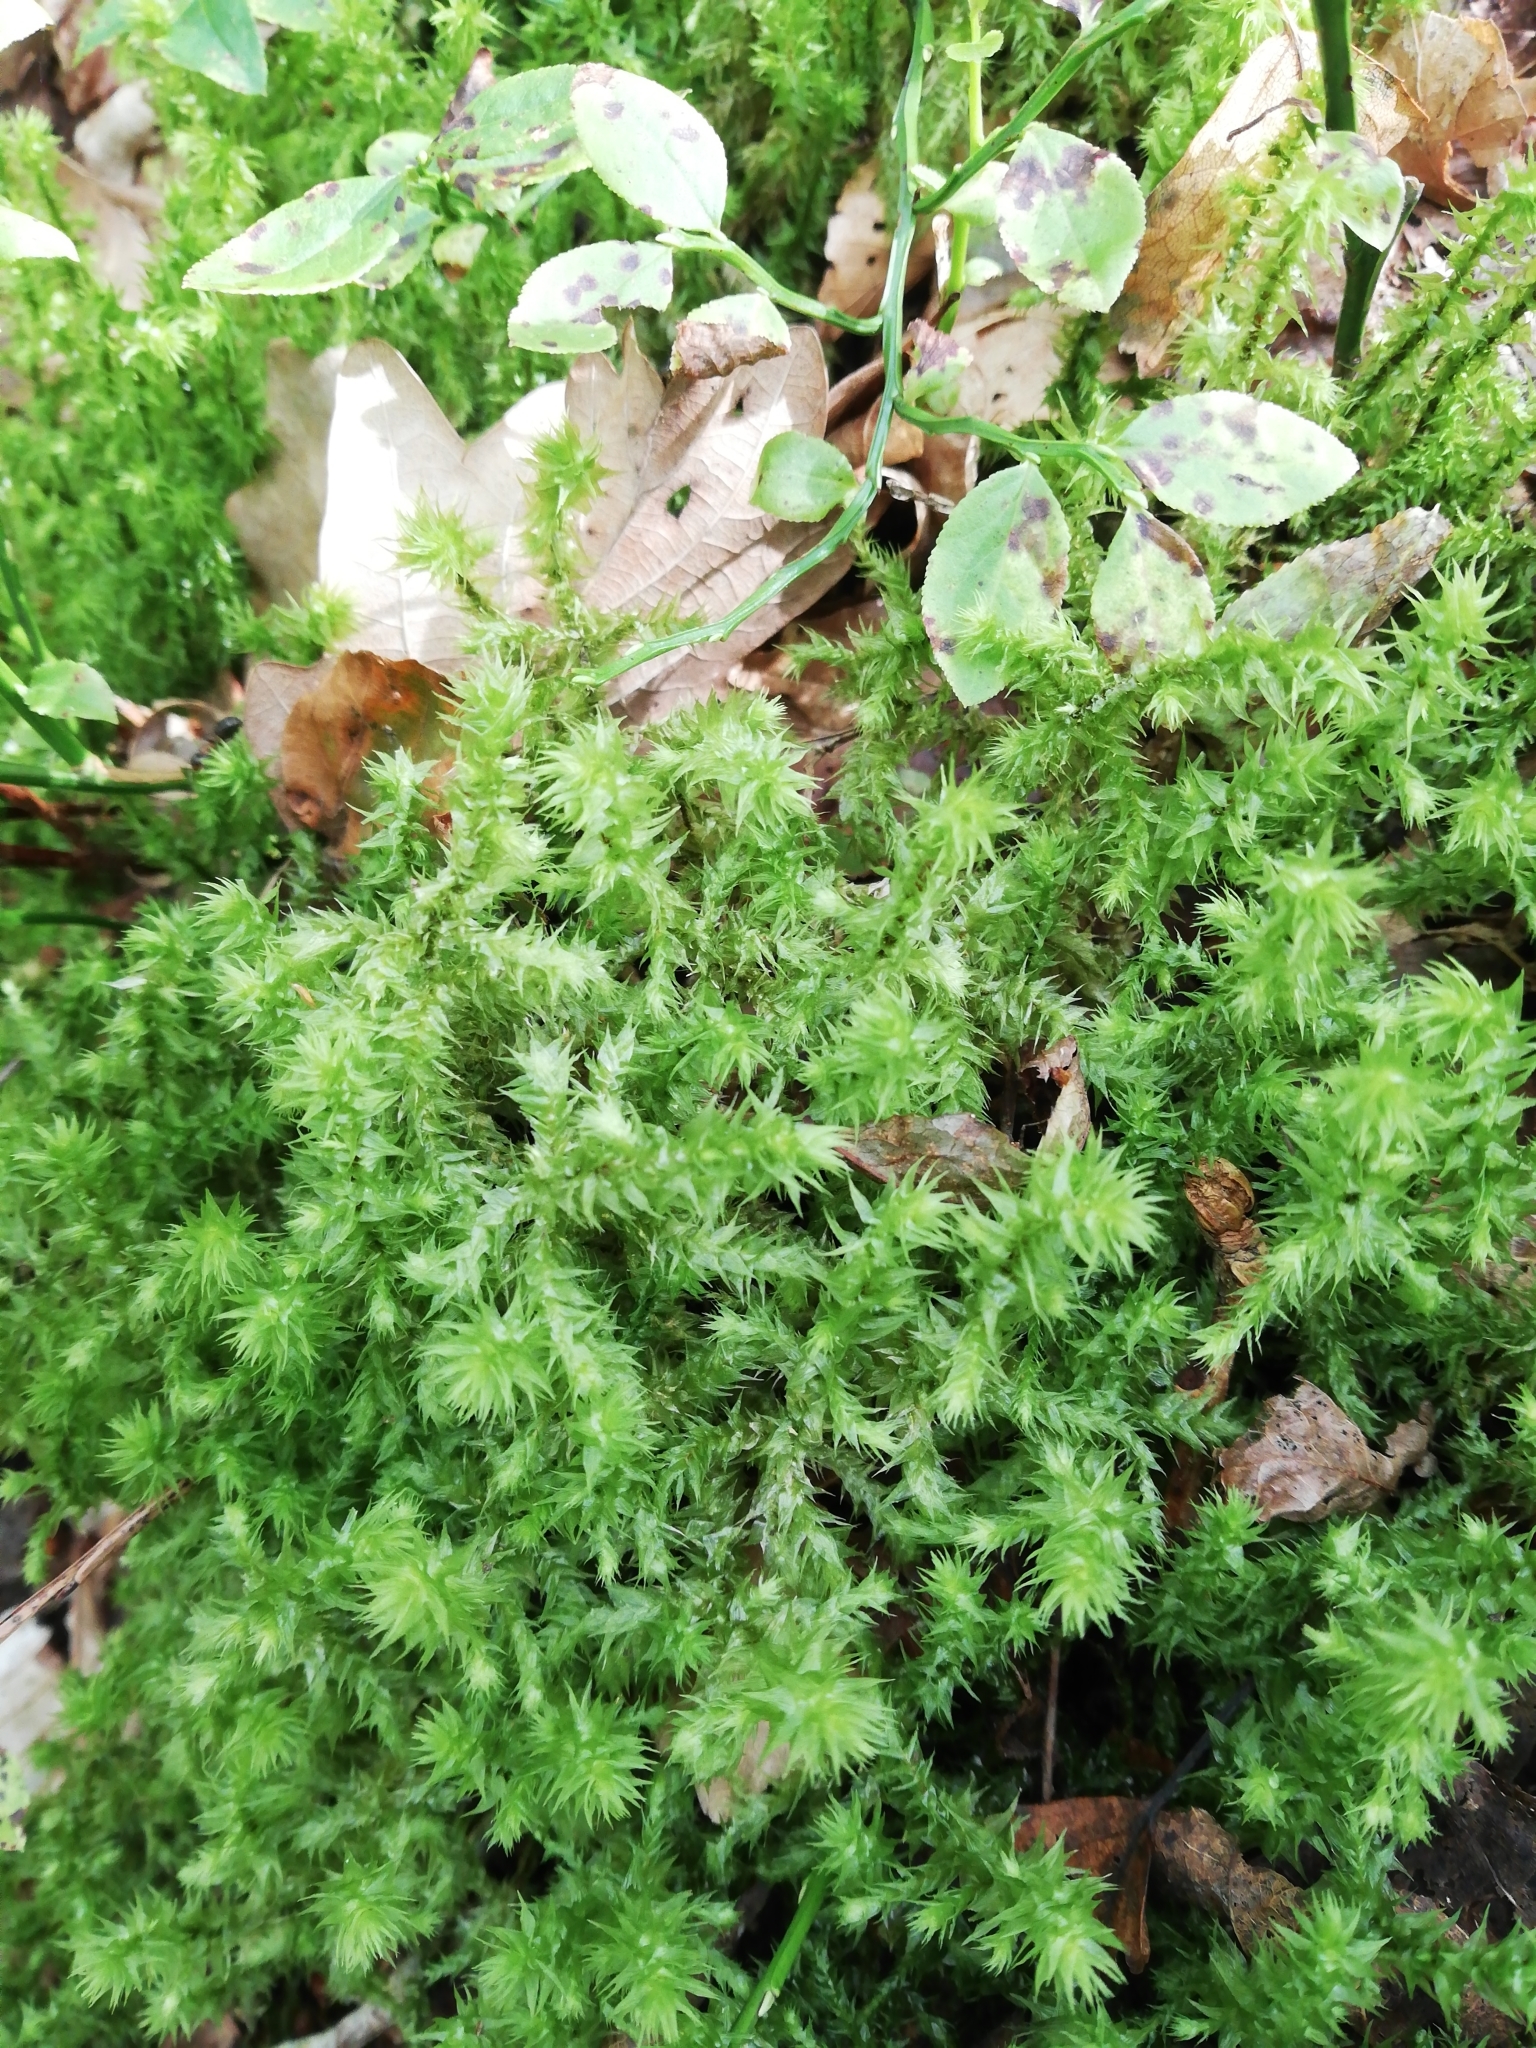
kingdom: Plantae
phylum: Bryophyta
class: Bryopsida
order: Hypnales
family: Hylocomiaceae
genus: Hylocomiadelphus
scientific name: Hylocomiadelphus triquetrus
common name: Rough goose neck moss
